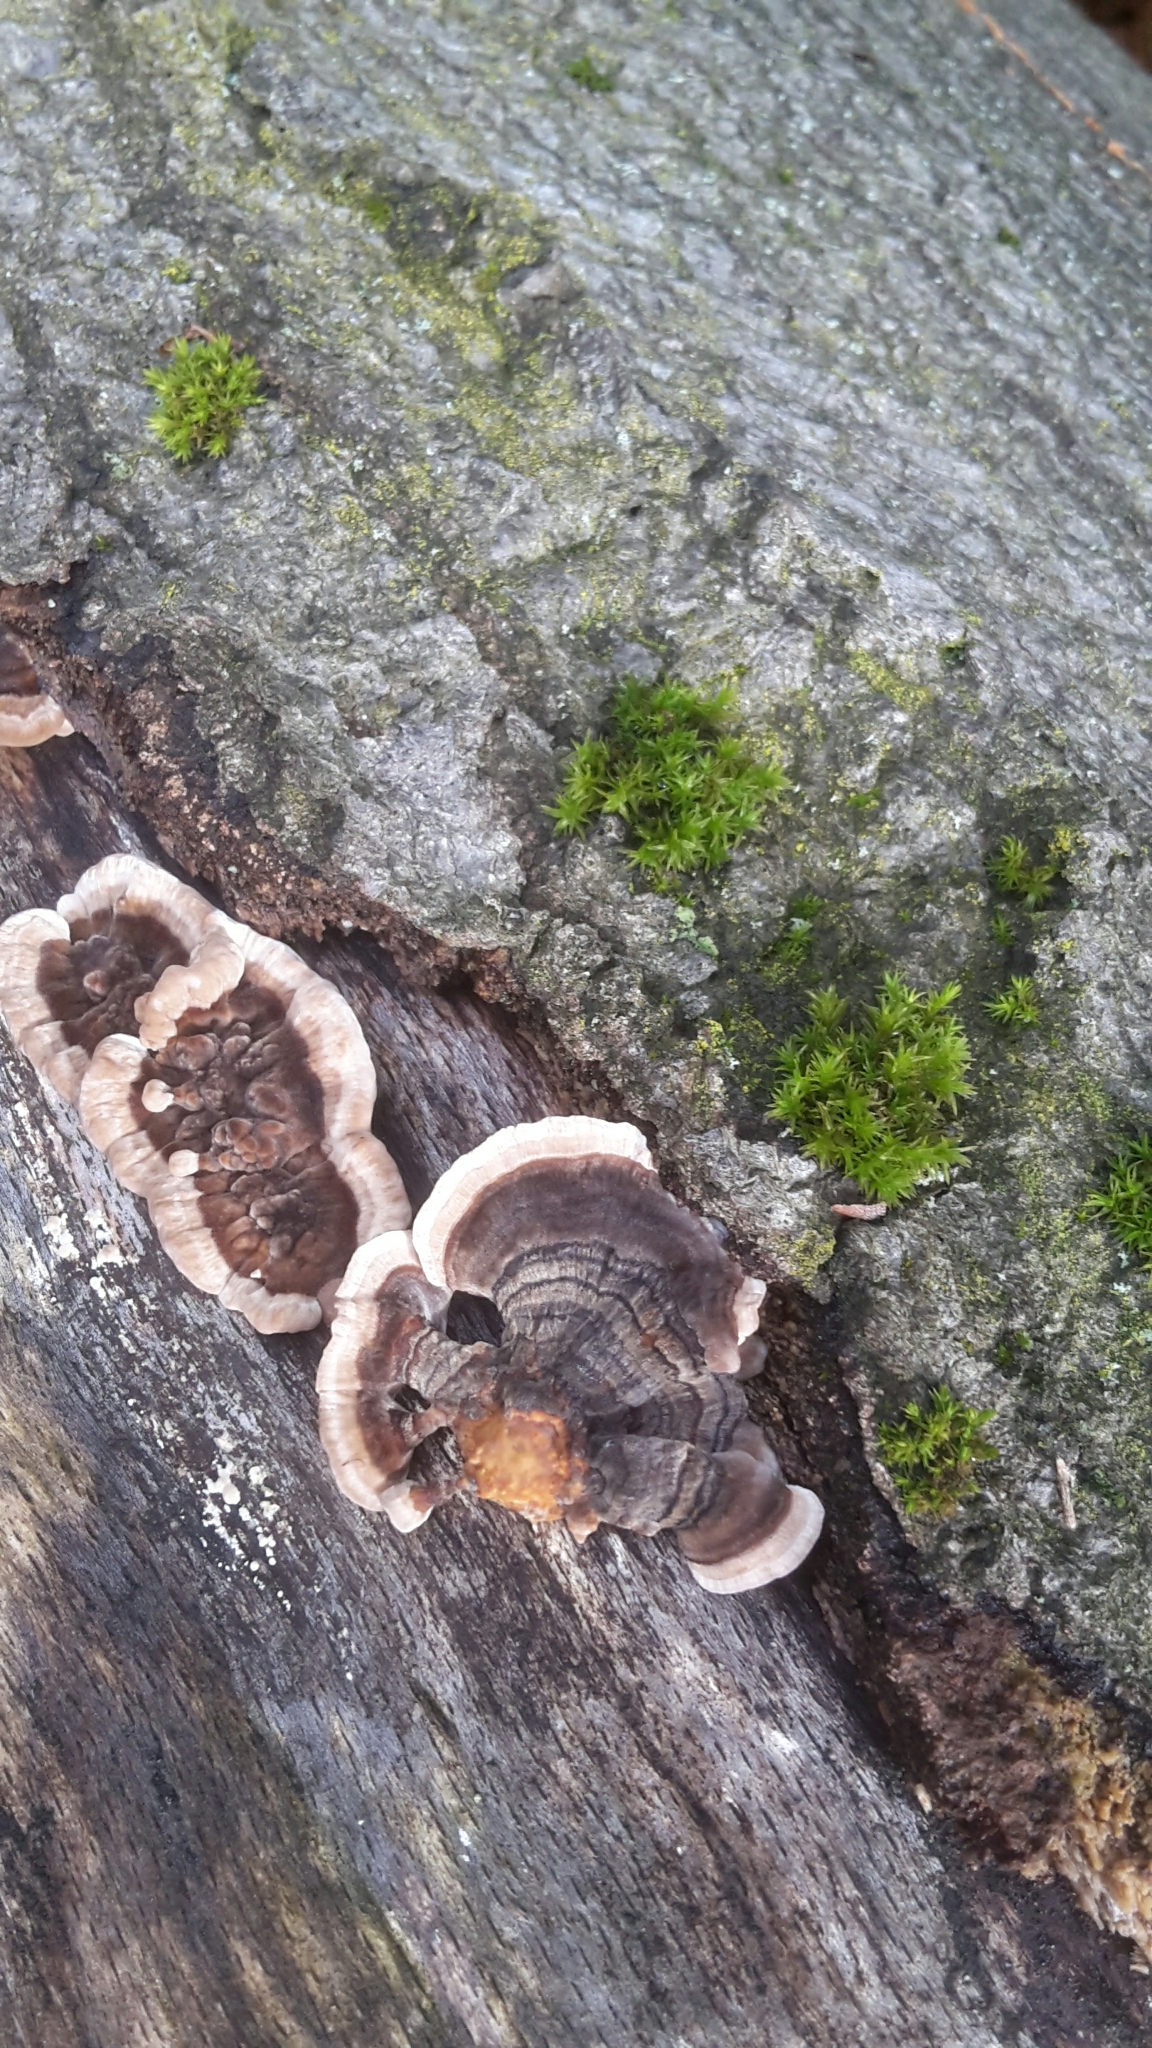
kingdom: Fungi
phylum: Basidiomycota
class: Agaricomycetes
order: Polyporales
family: Polyporaceae
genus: Trametes
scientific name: Trametes versicolor
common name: Turkeytail
